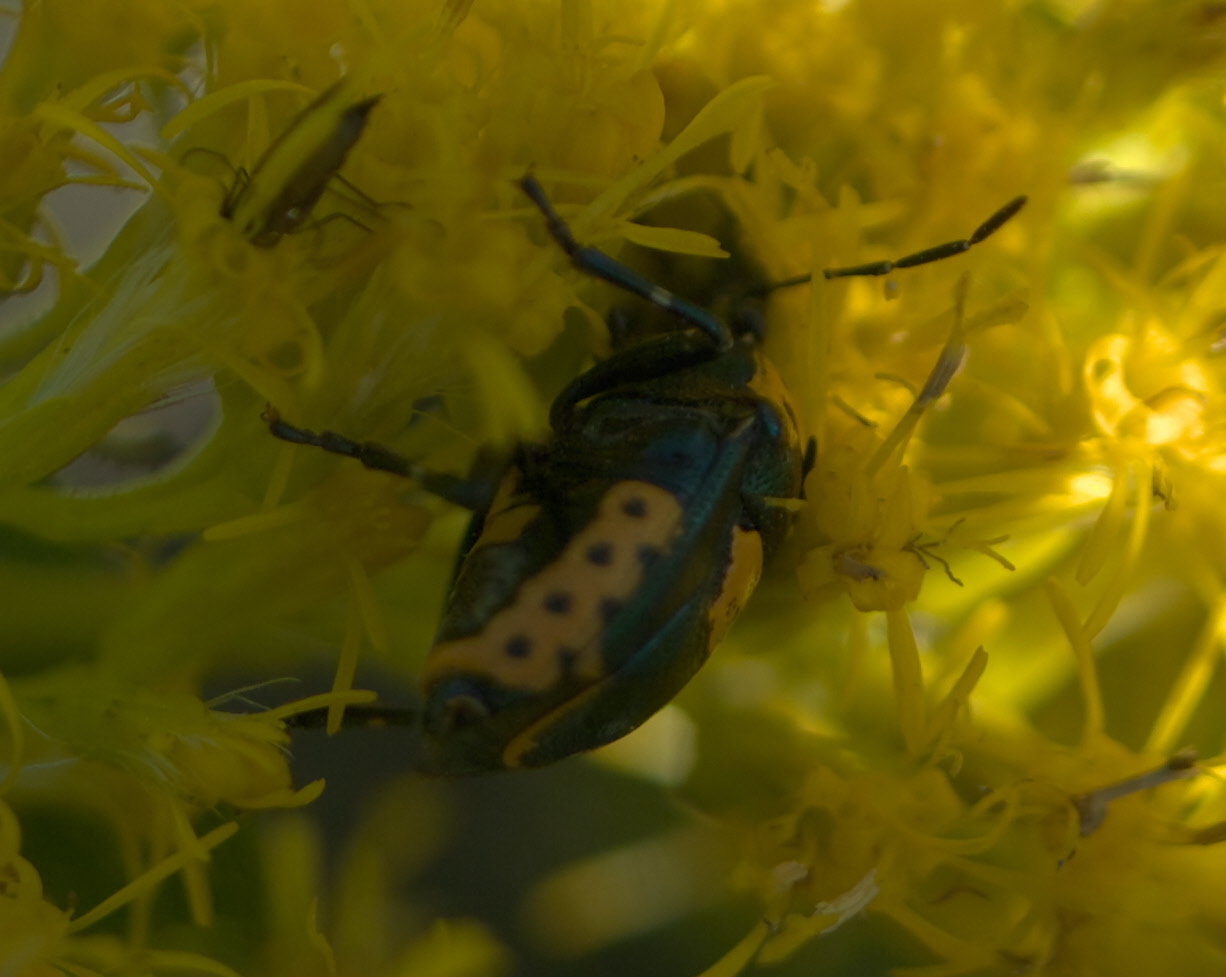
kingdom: Animalia
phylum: Arthropoda
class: Insecta
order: Hemiptera
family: Pentatomidae
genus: Stiretrus
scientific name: Stiretrus anchorago
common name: Anchor stink bug
